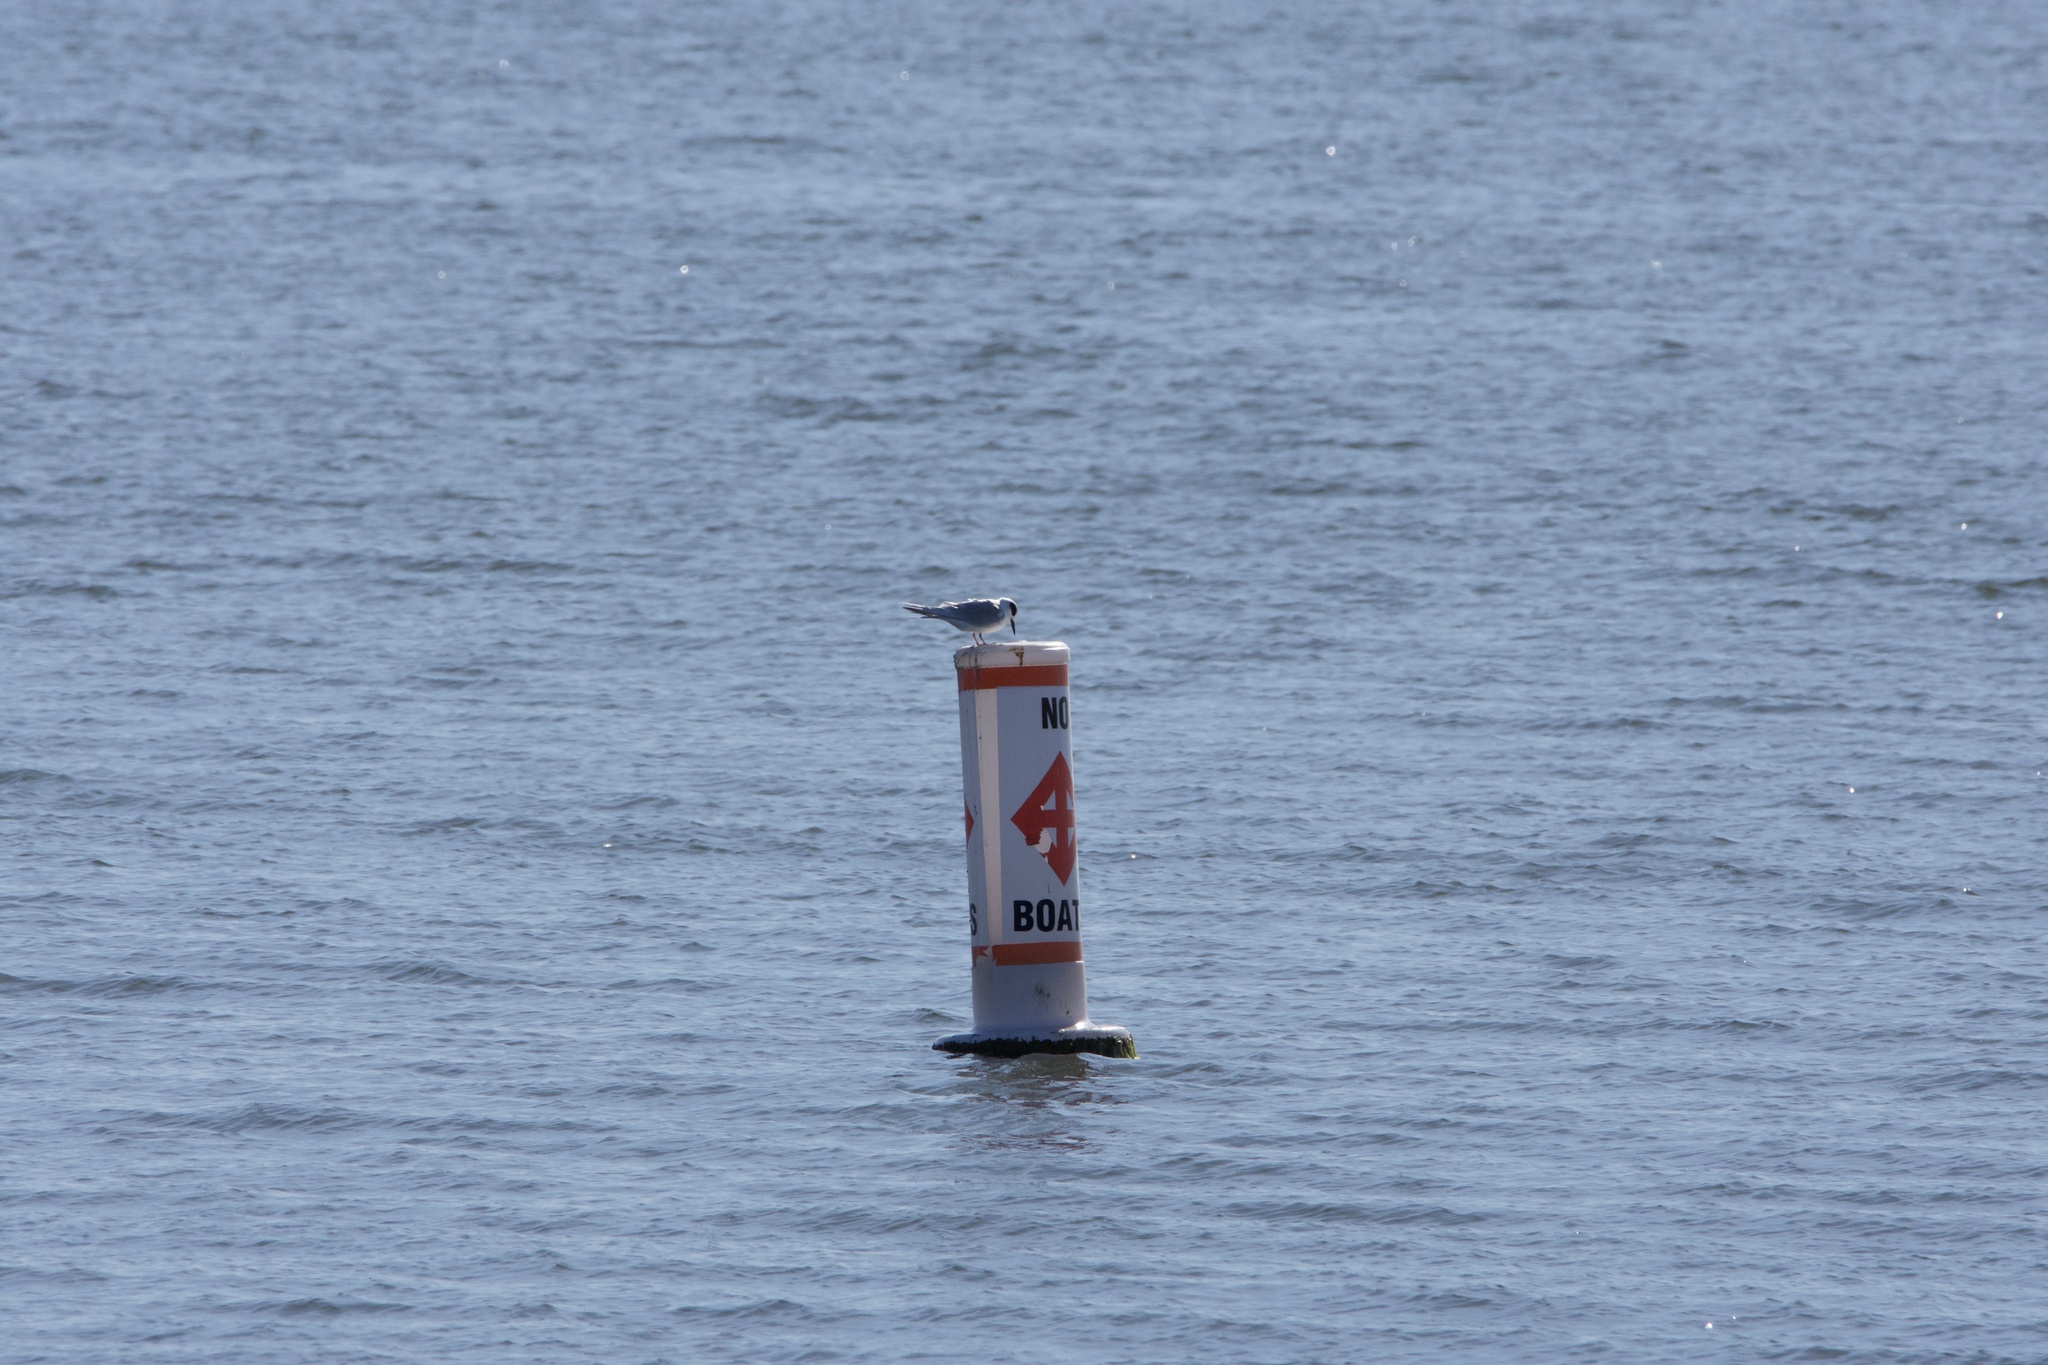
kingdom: Animalia
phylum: Chordata
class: Aves
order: Charadriiformes
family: Laridae
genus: Sterna
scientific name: Sterna forsteri
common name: Forster's tern
